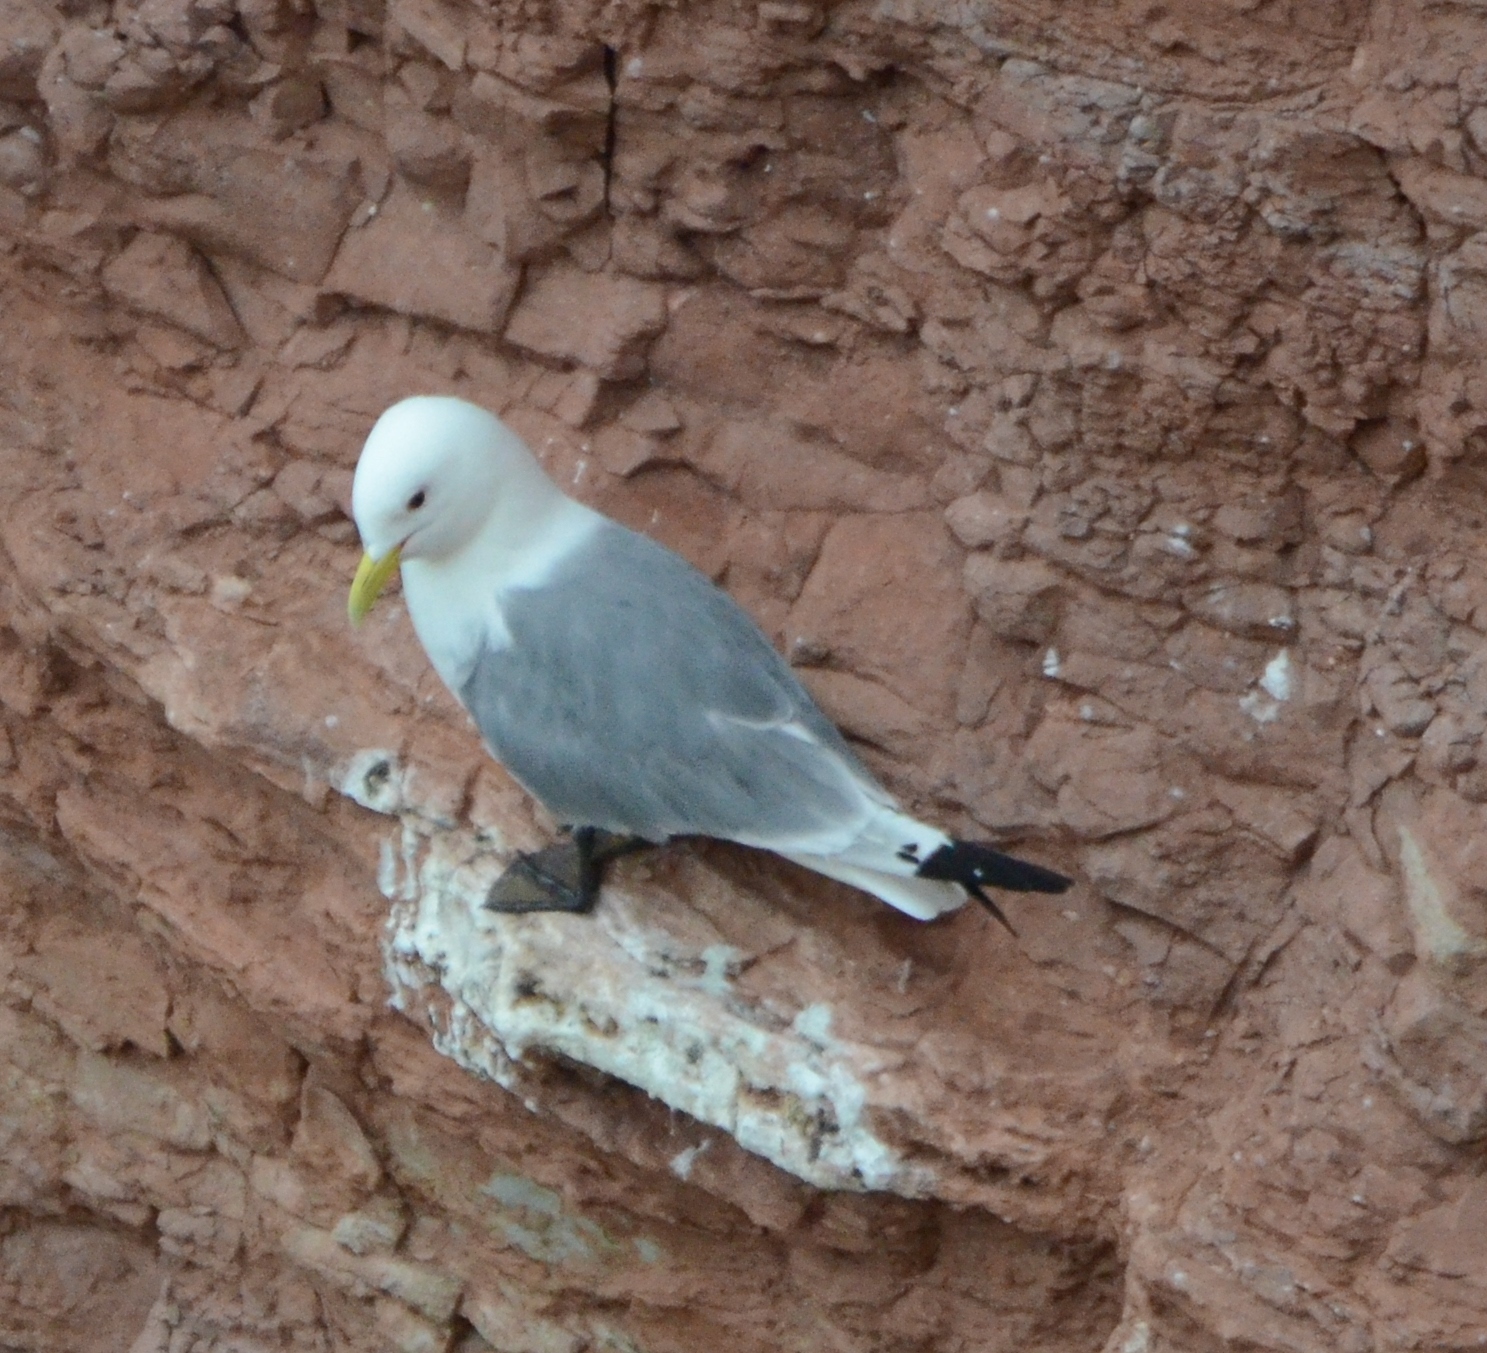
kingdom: Animalia
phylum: Chordata
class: Aves
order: Charadriiformes
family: Laridae
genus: Rissa
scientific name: Rissa tridactyla
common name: Black-legged kittiwake
